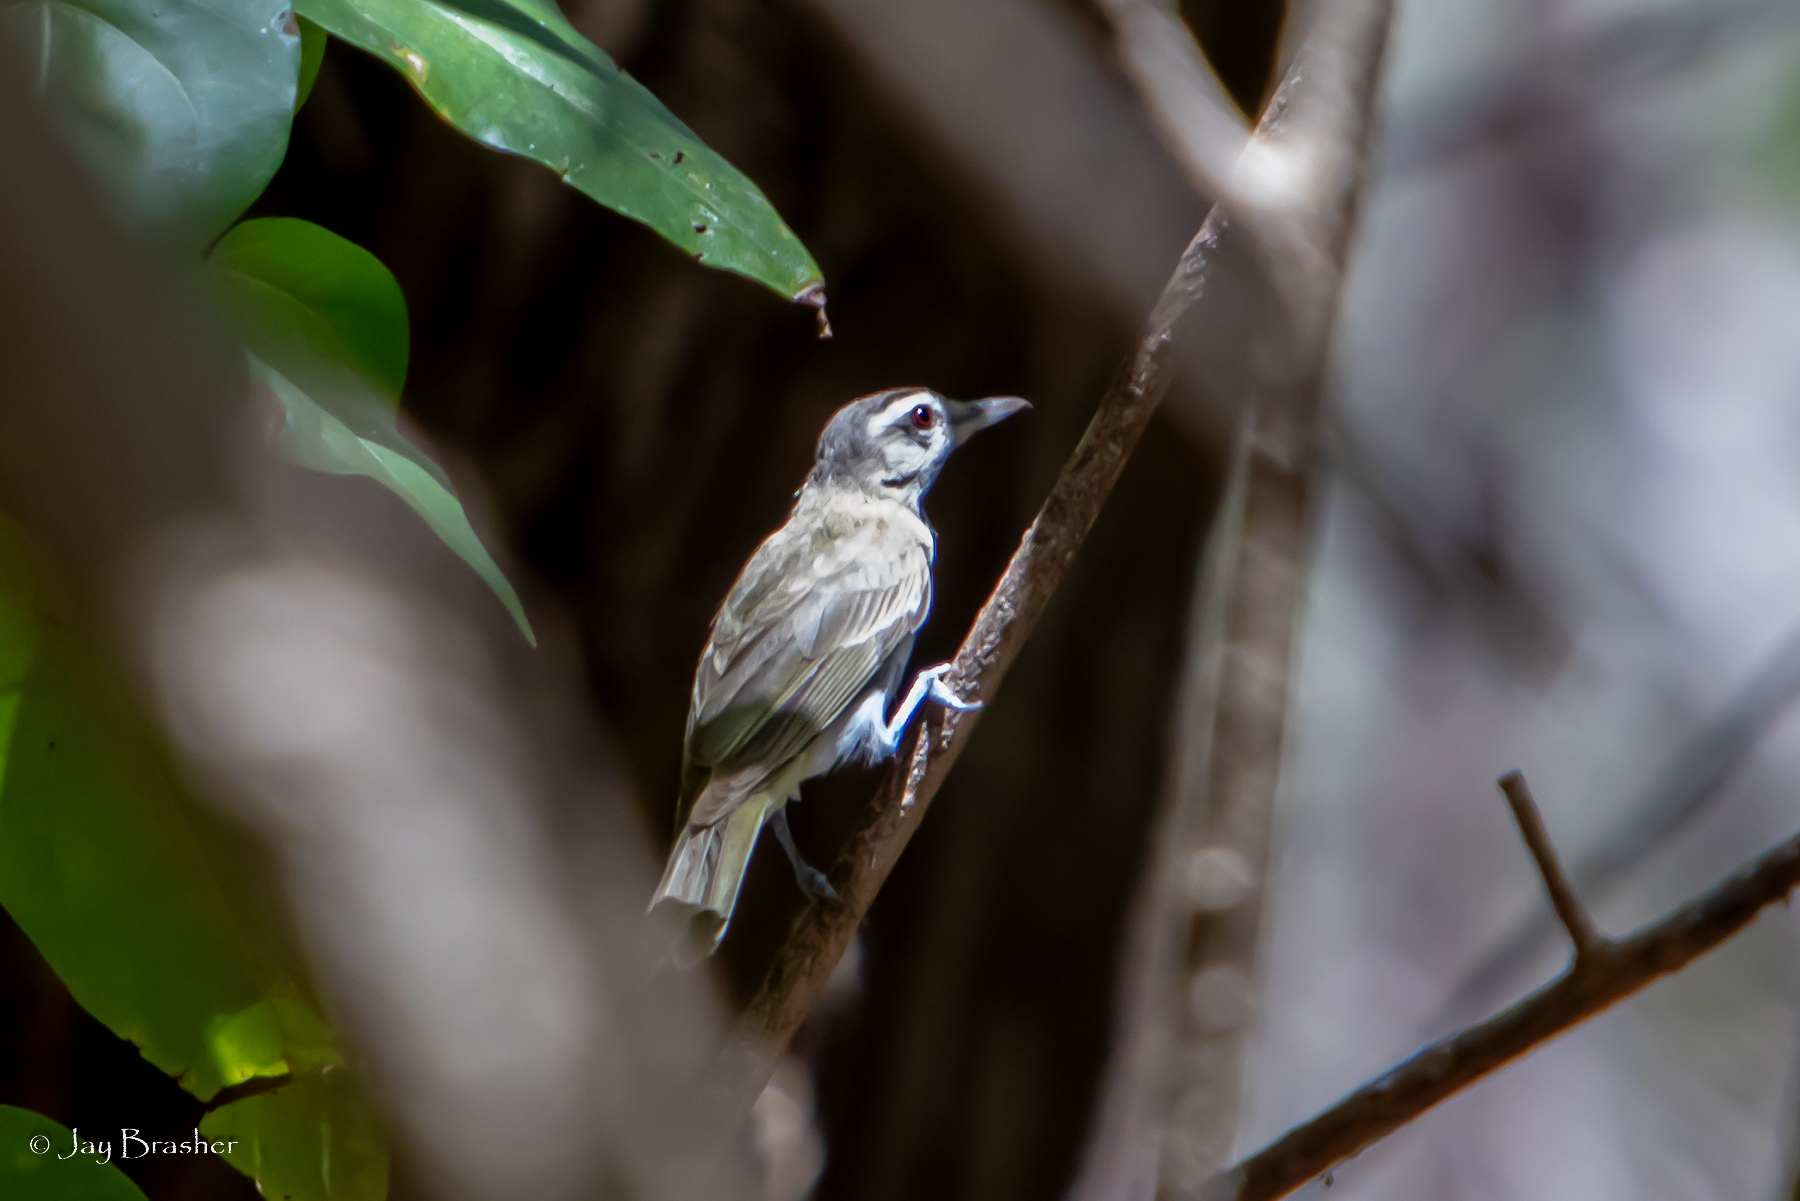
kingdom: Animalia
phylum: Chordata
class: Aves
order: Passeriformes
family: Vireonidae
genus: Vireo
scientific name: Vireo altiloquus
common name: Black-whiskered vireo
